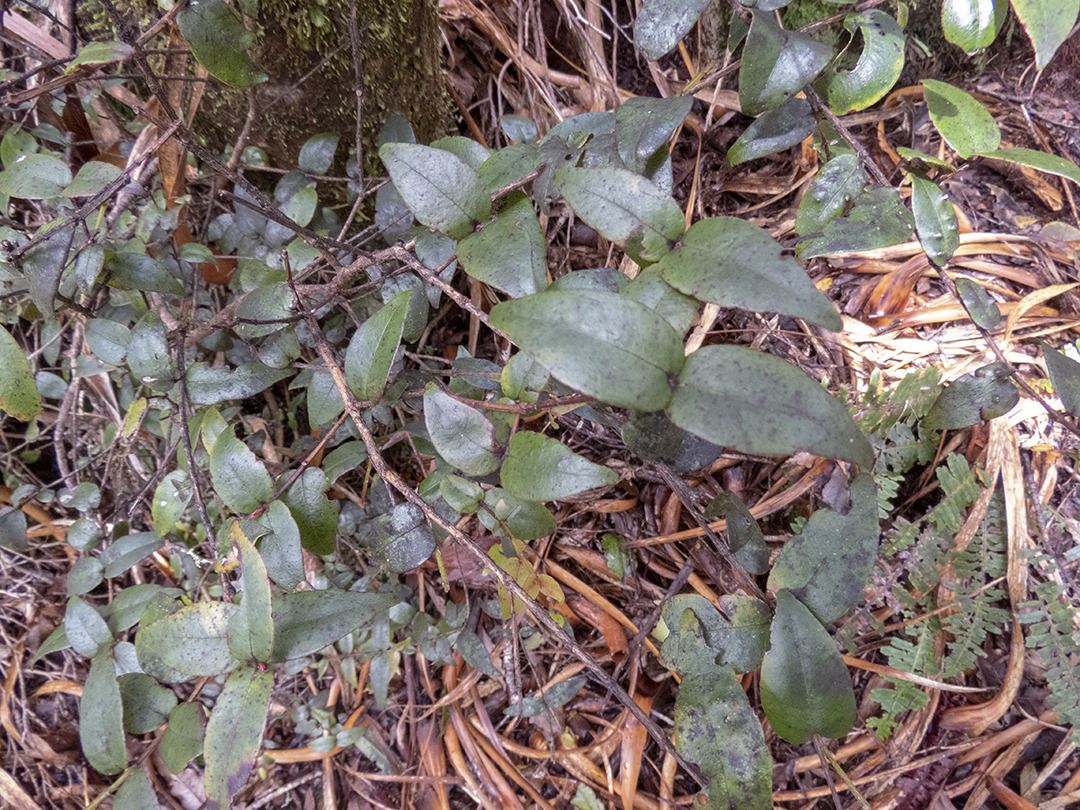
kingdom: Plantae
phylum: Tracheophyta
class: Magnoliopsida
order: Myrtales
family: Myrtaceae
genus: Metrosideros
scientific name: Metrosideros parkinsonii
